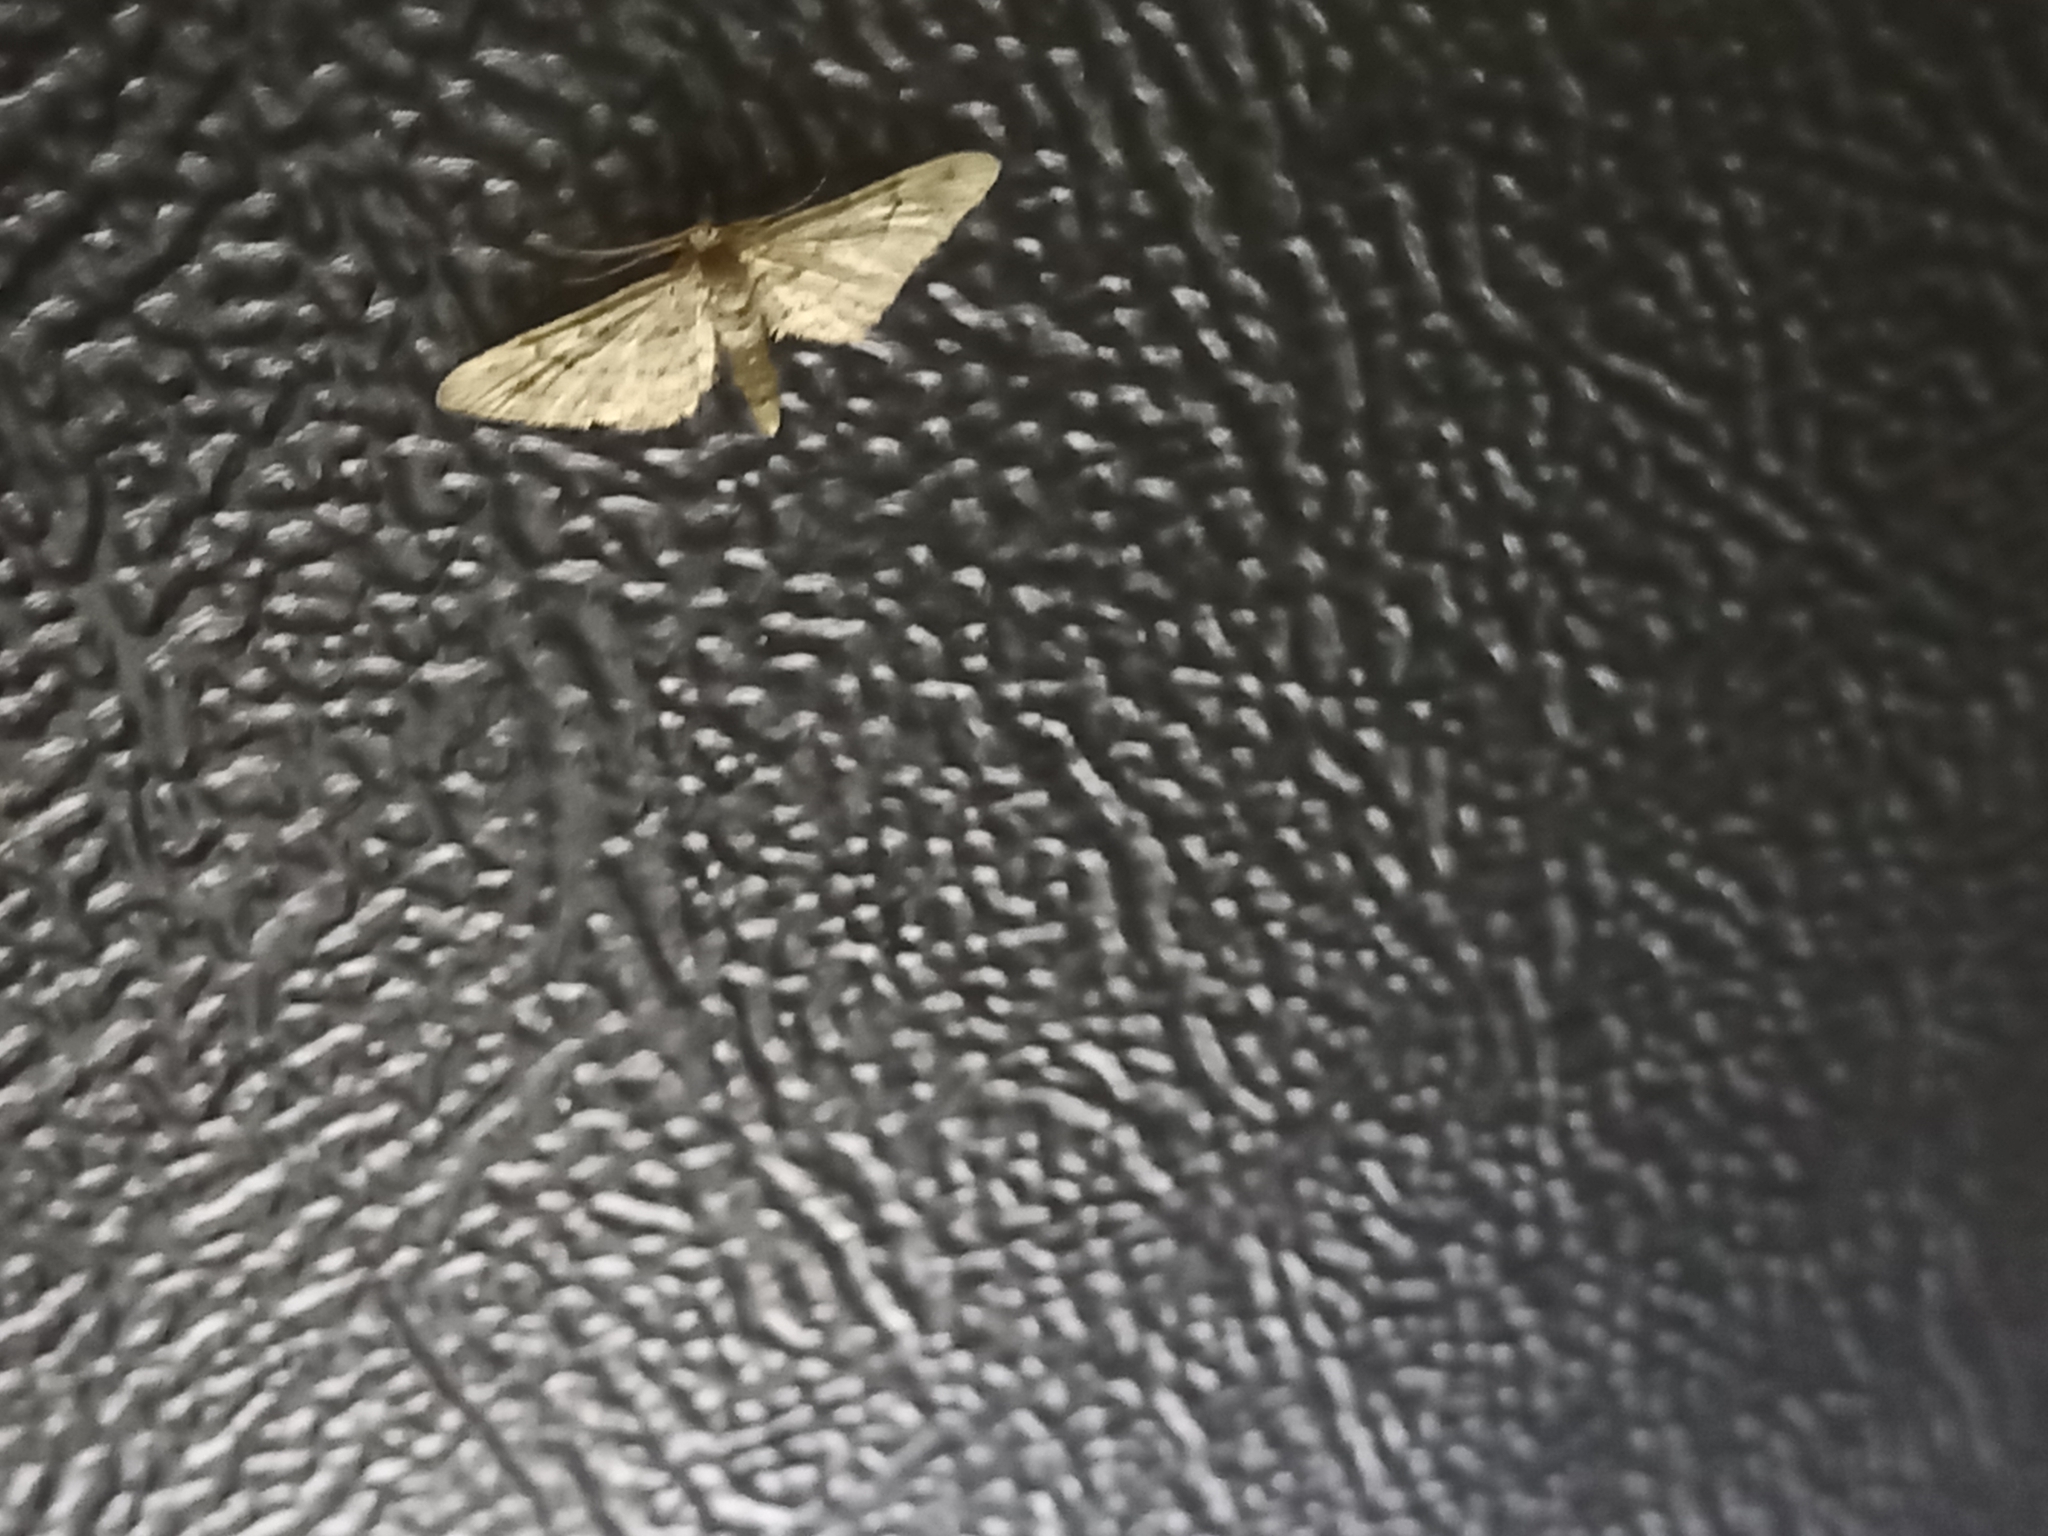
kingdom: Animalia
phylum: Arthropoda
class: Insecta
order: Lepidoptera
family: Geometridae
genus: Gymnoscelis
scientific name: Gymnoscelis rufifasciata
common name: Double-striped pug
